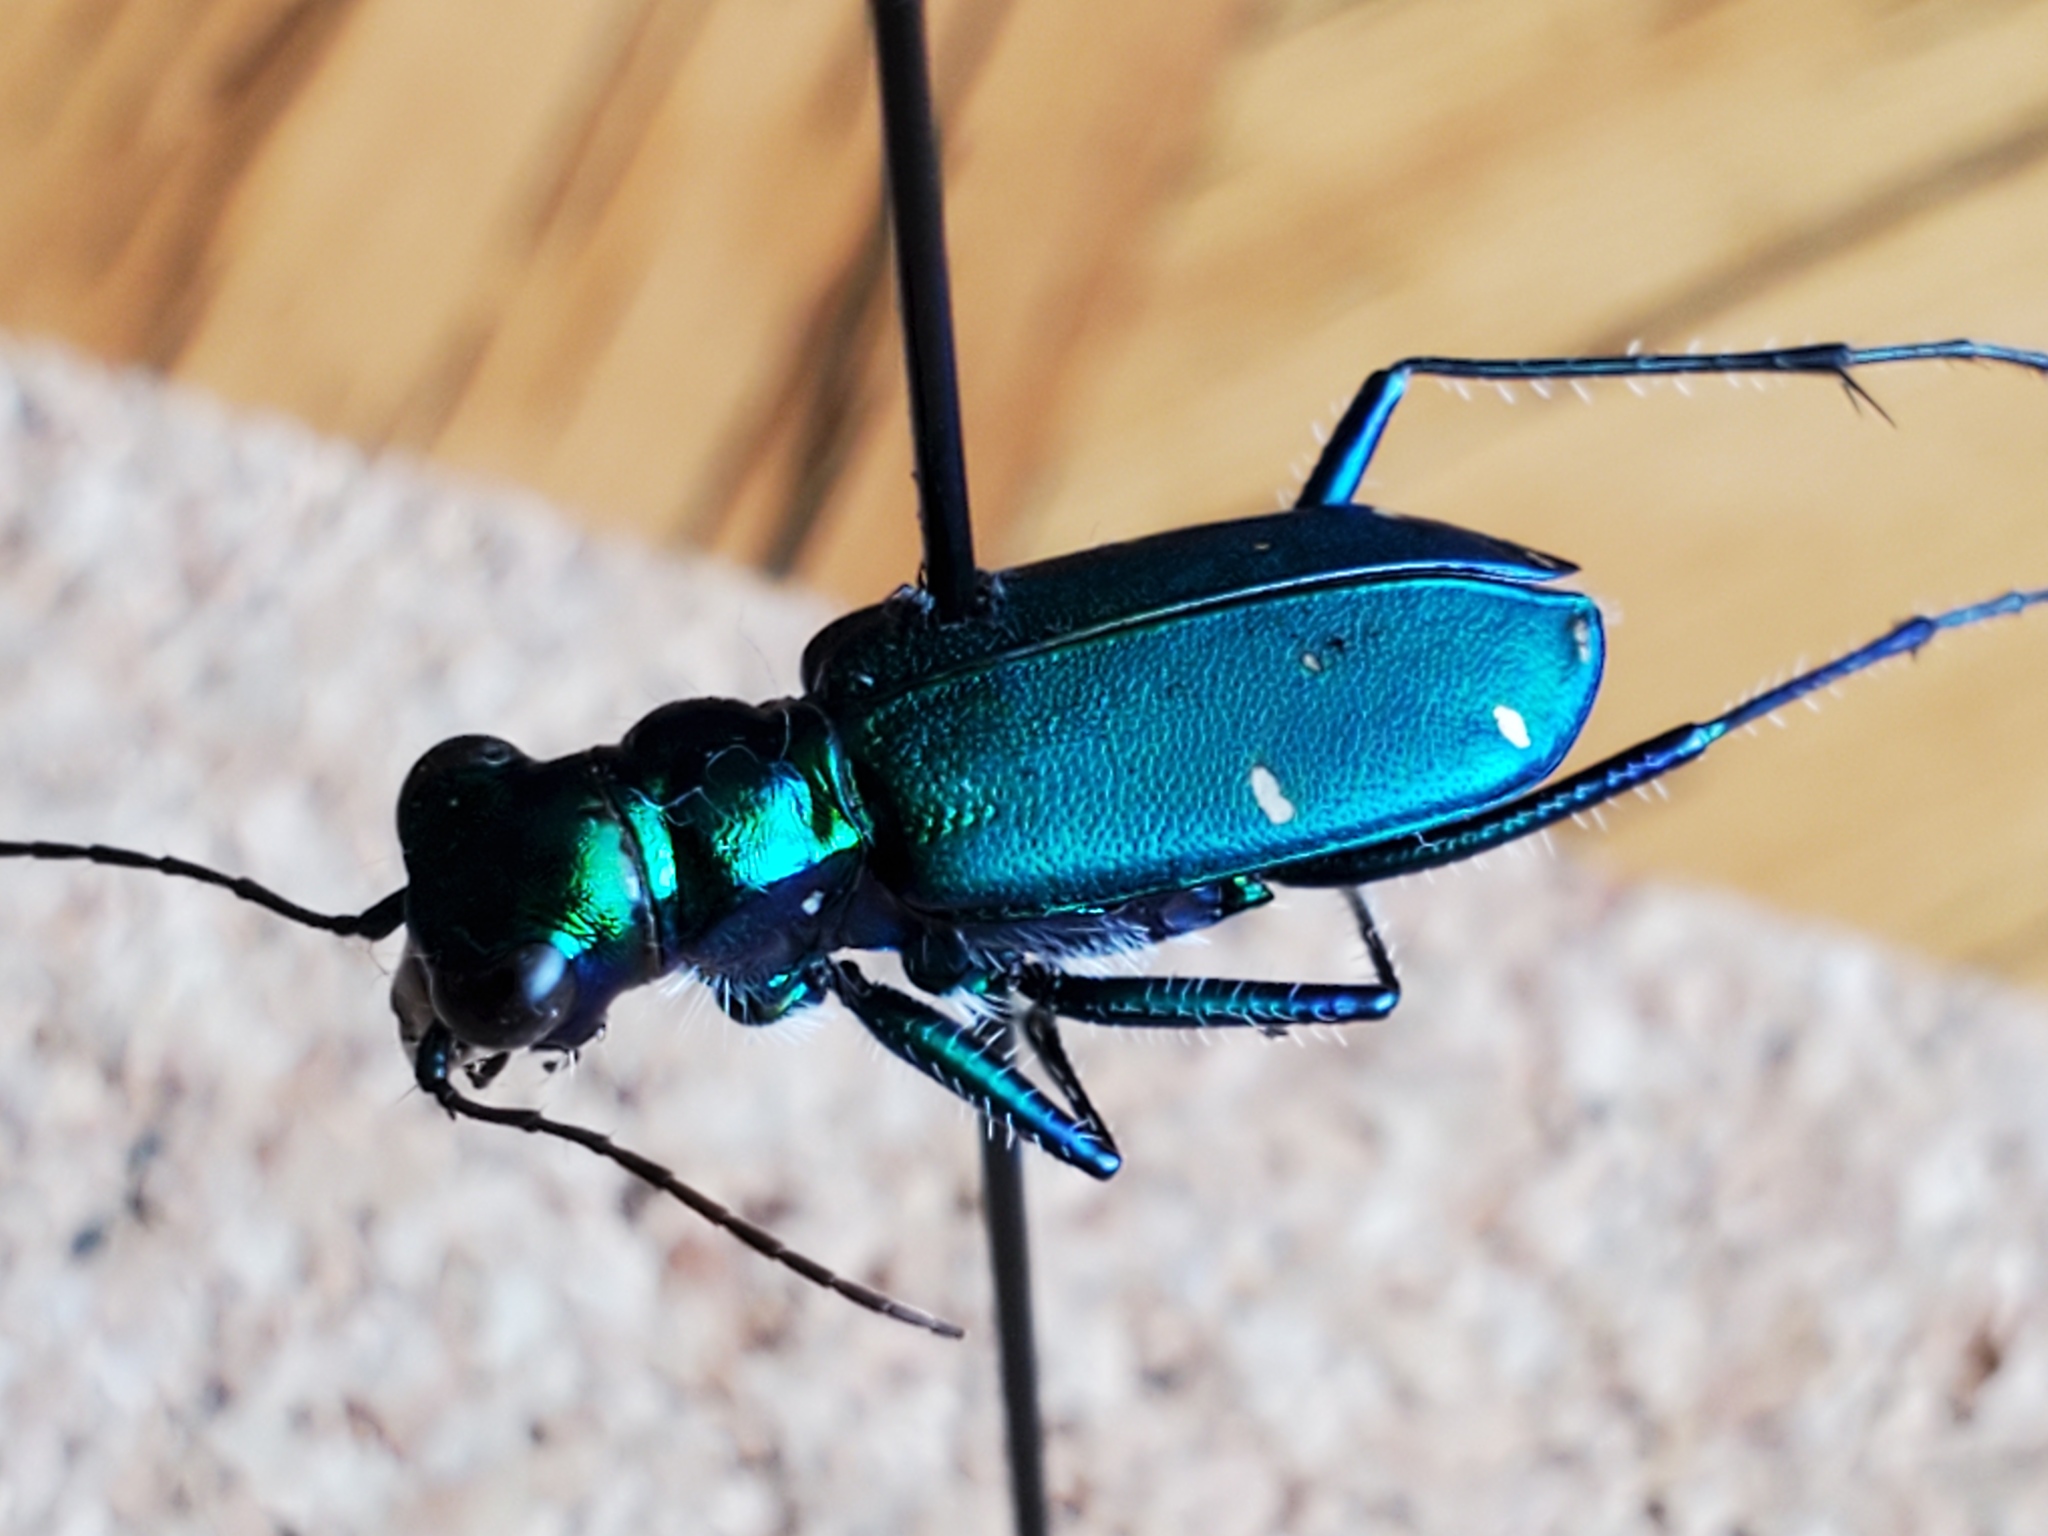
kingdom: Animalia
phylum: Arthropoda
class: Insecta
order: Coleoptera
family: Carabidae
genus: Cicindela
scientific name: Cicindela sexguttata
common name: Six-spotted tiger beetle
